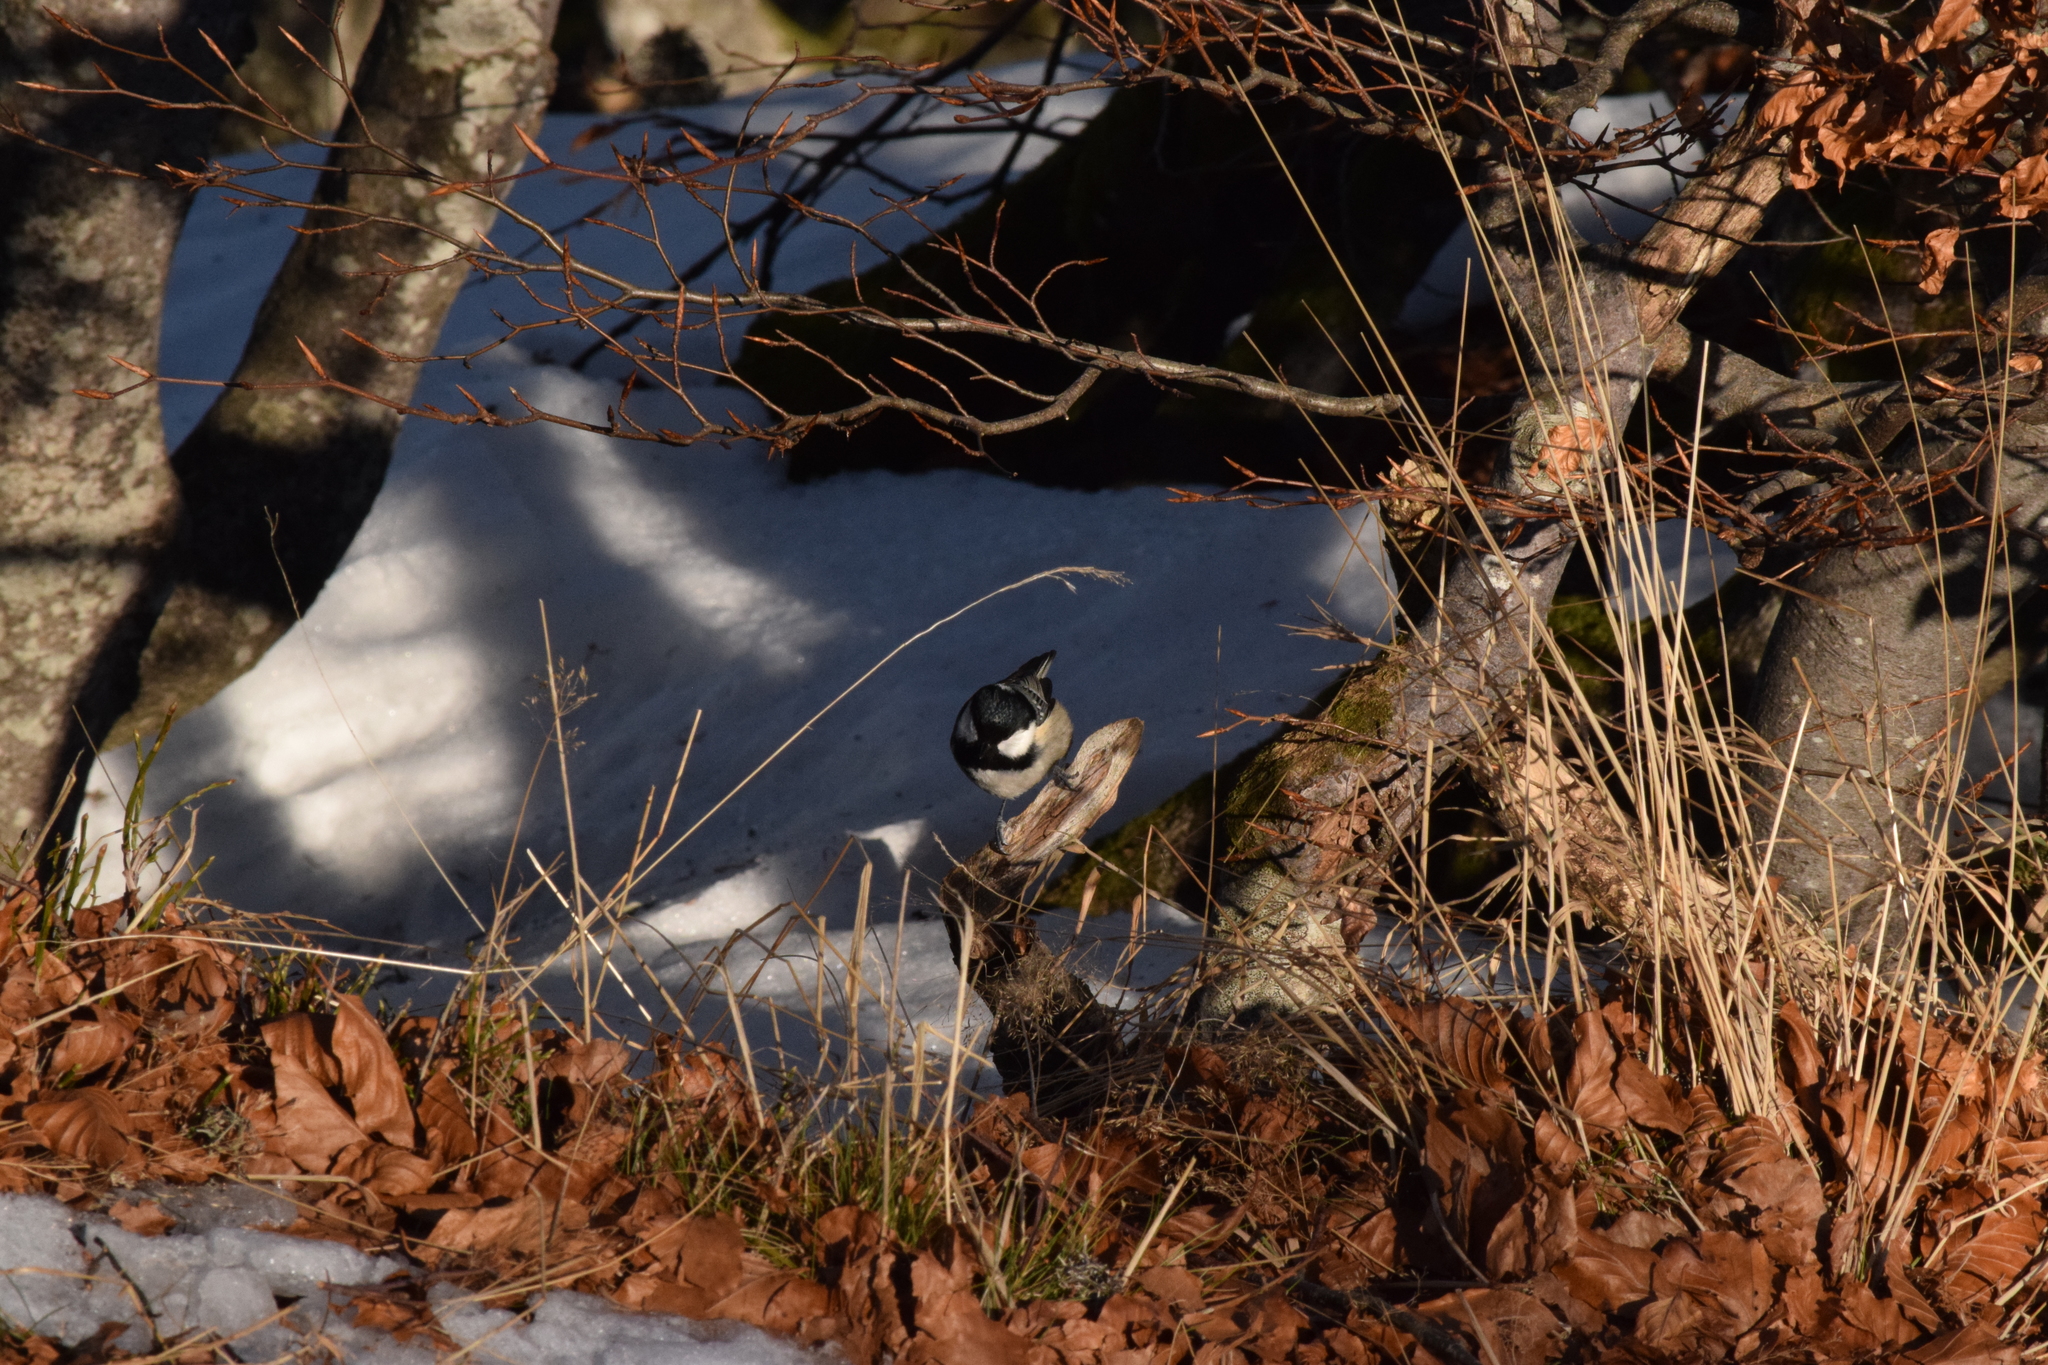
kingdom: Animalia
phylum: Chordata
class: Aves
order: Passeriformes
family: Paridae
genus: Periparus
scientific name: Periparus ater
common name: Coal tit
